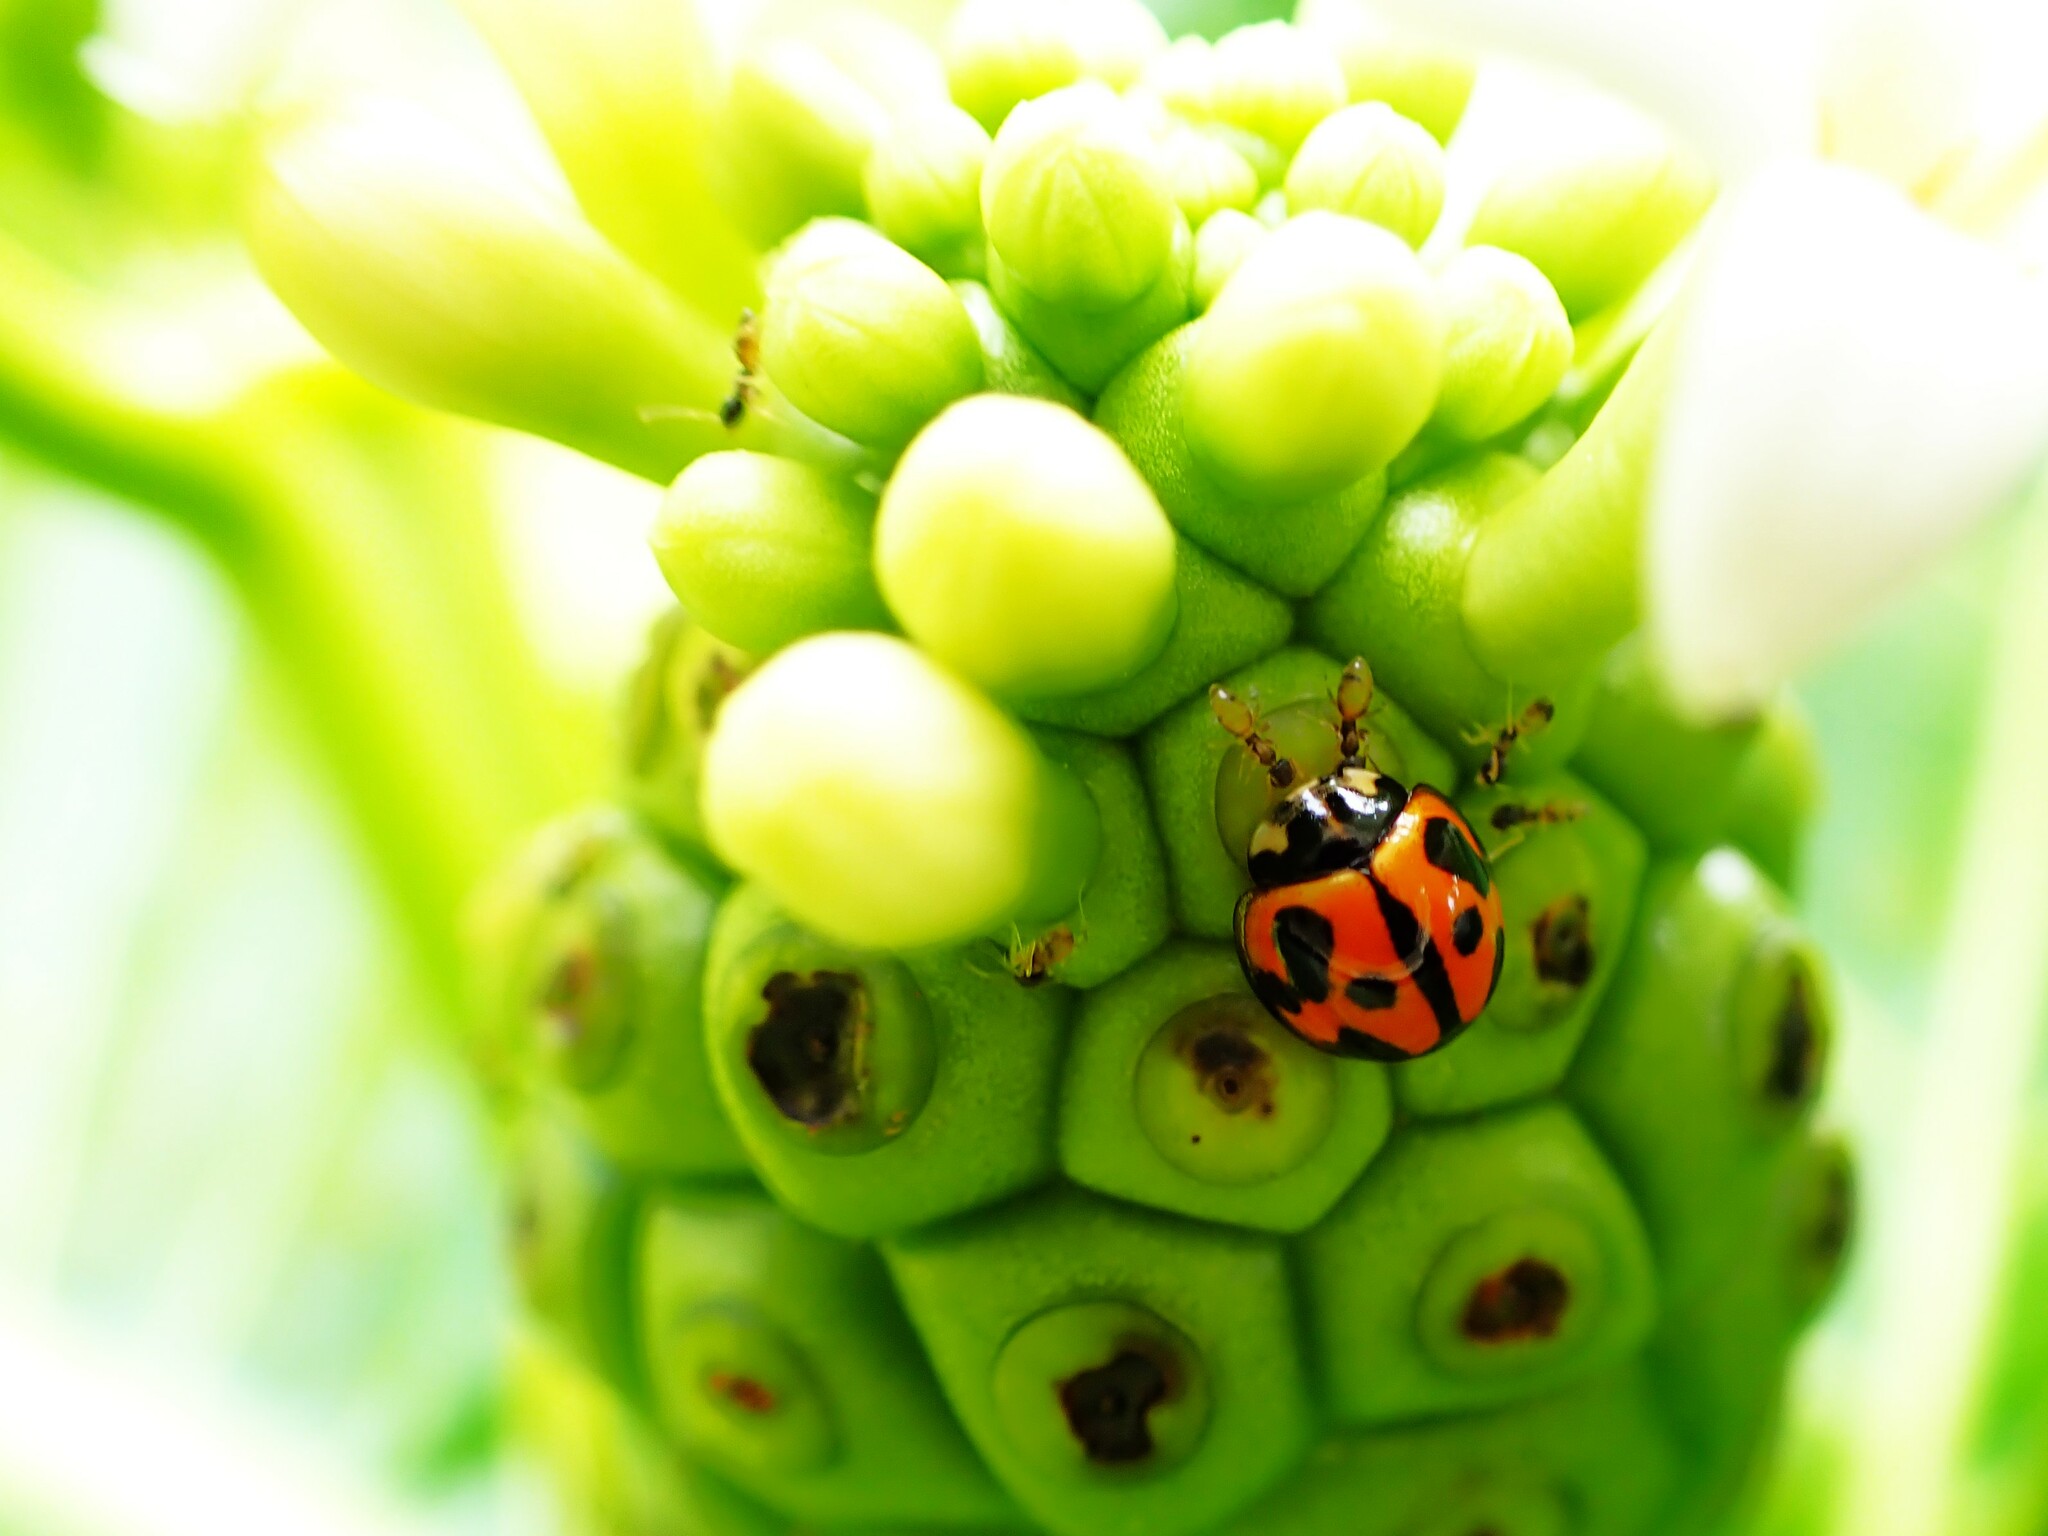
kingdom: Animalia
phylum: Arthropoda
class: Insecta
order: Coleoptera
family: Coccinellidae
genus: Coelophora
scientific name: Coelophora inaequalis
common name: Common australian lady beetle
